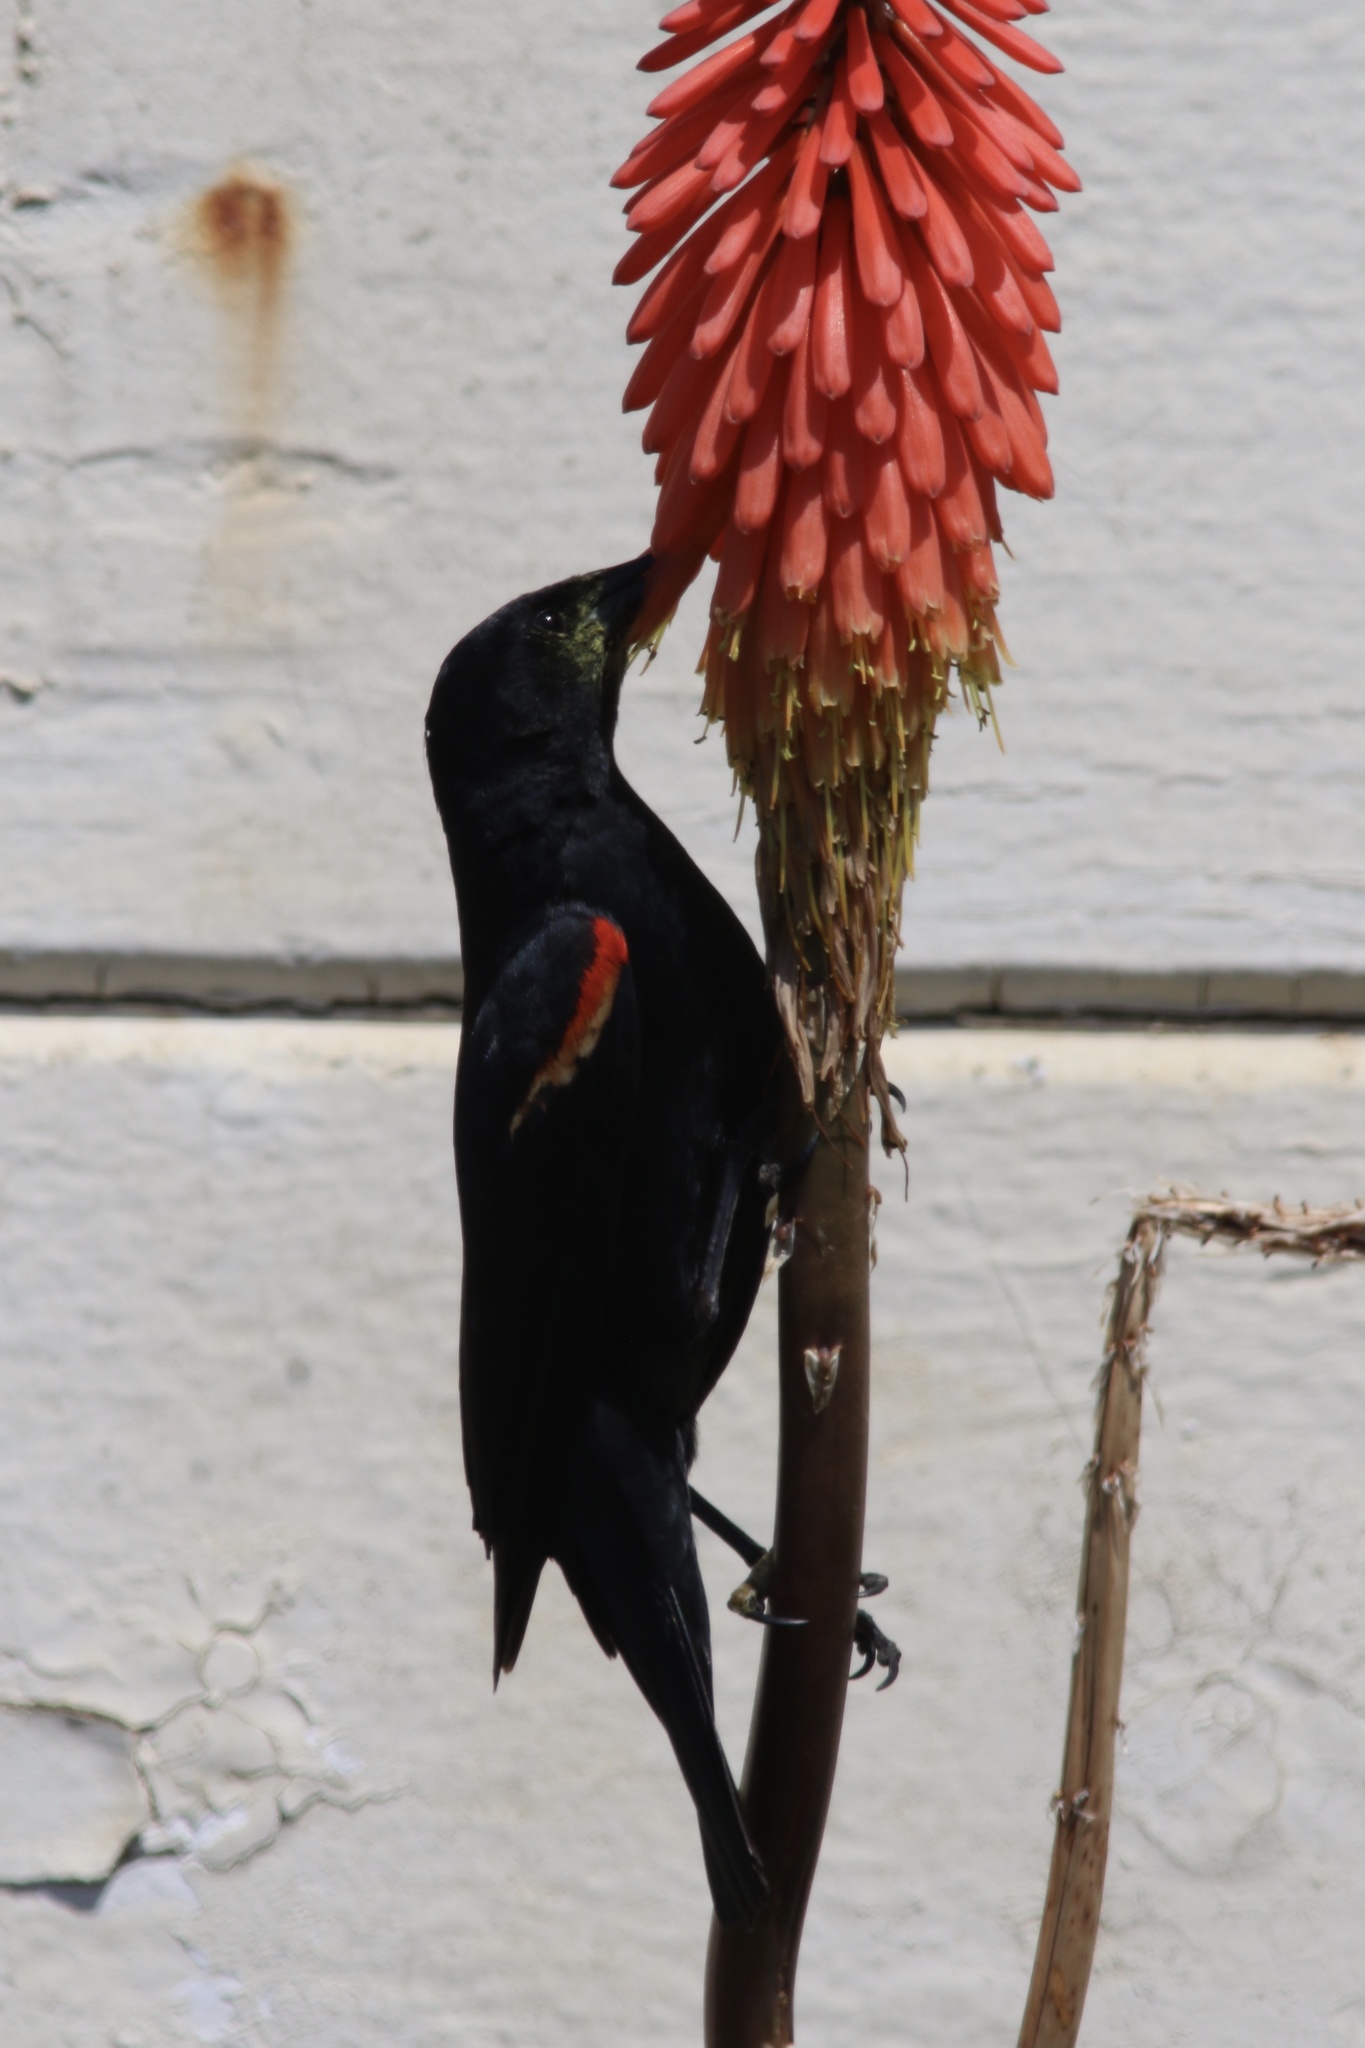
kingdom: Animalia
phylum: Chordata
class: Aves
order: Passeriformes
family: Icteridae
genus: Agelaius
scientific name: Agelaius phoeniceus
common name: Red-winged blackbird
